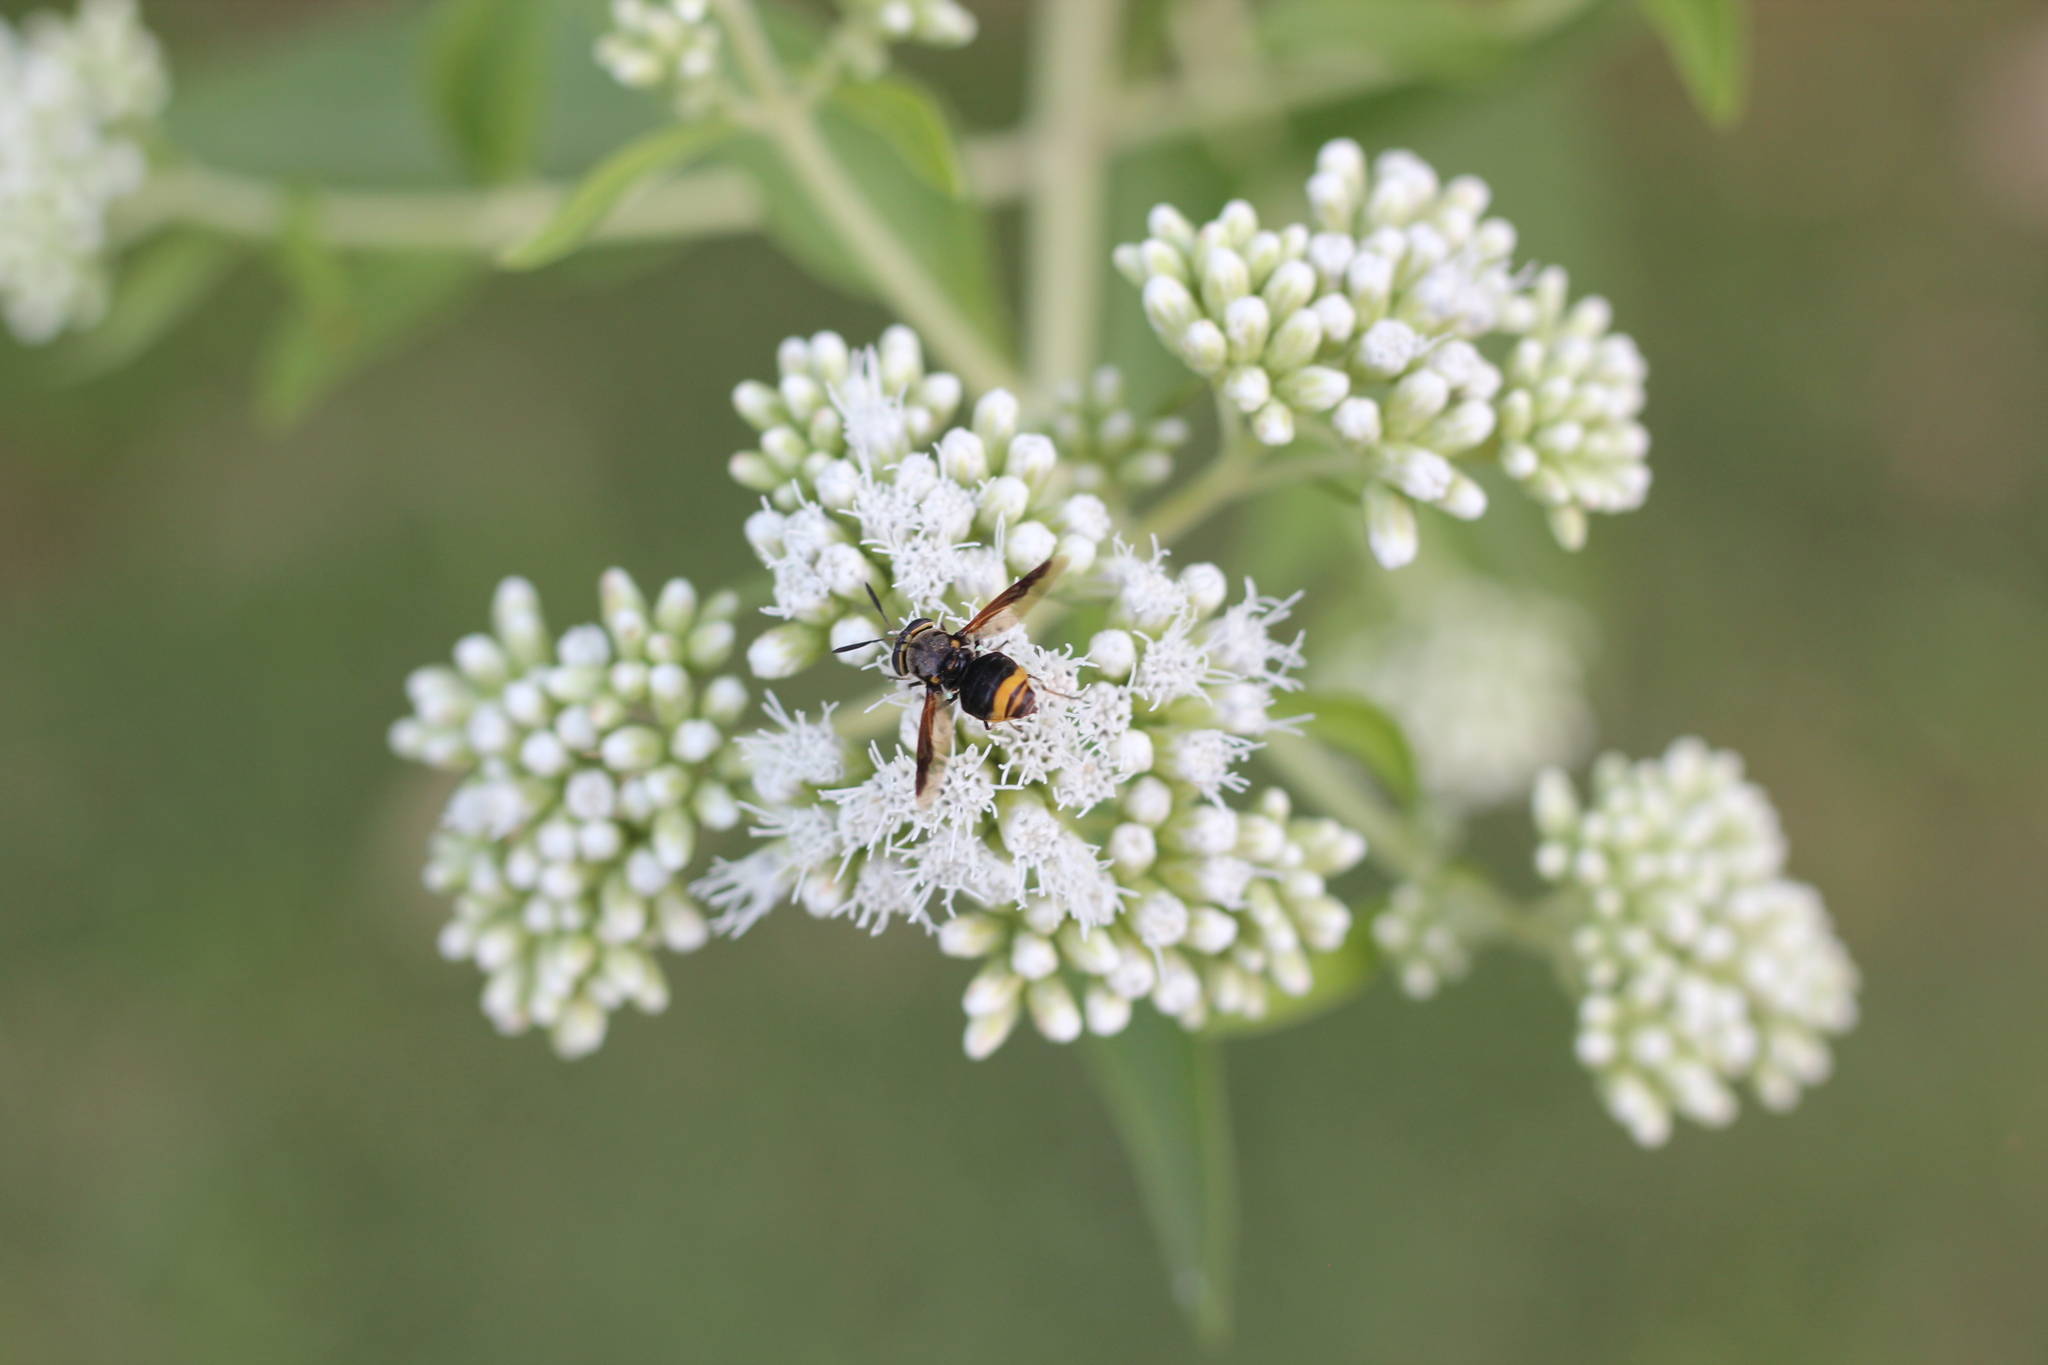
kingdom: Animalia
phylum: Arthropoda
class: Insecta
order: Diptera
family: Stratiomyidae
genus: Hoplitimyia
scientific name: Hoplitimyia
